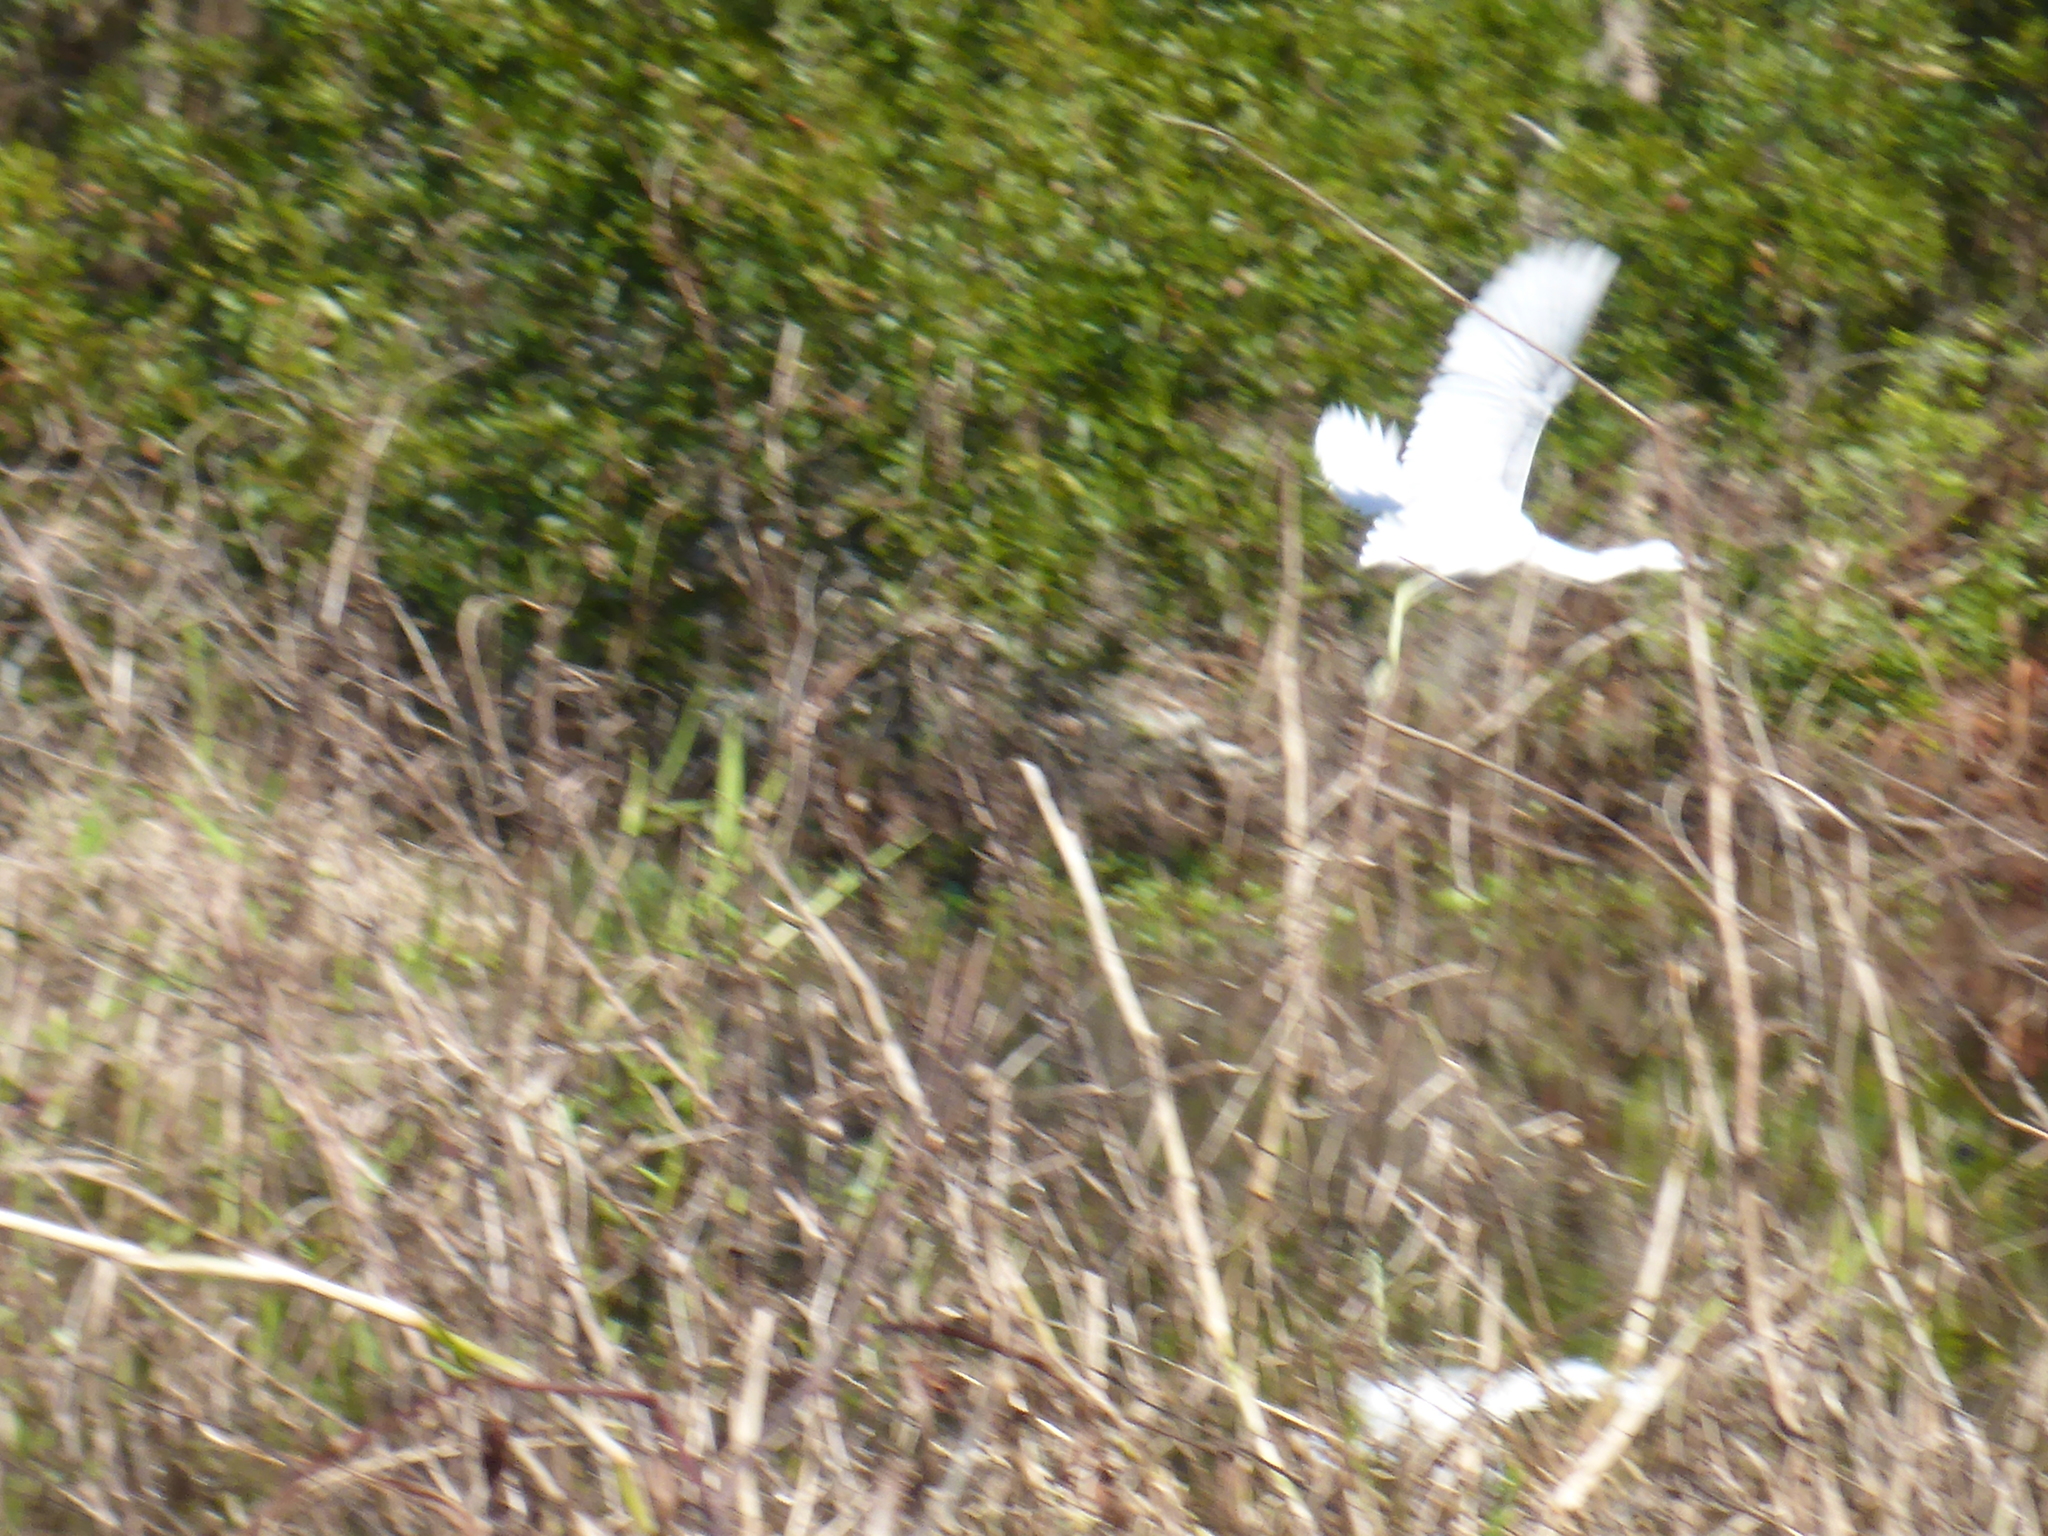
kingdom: Animalia
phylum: Chordata
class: Aves
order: Pelecaniformes
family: Ardeidae
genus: Egretta
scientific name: Egretta caerulea
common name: Little blue heron
